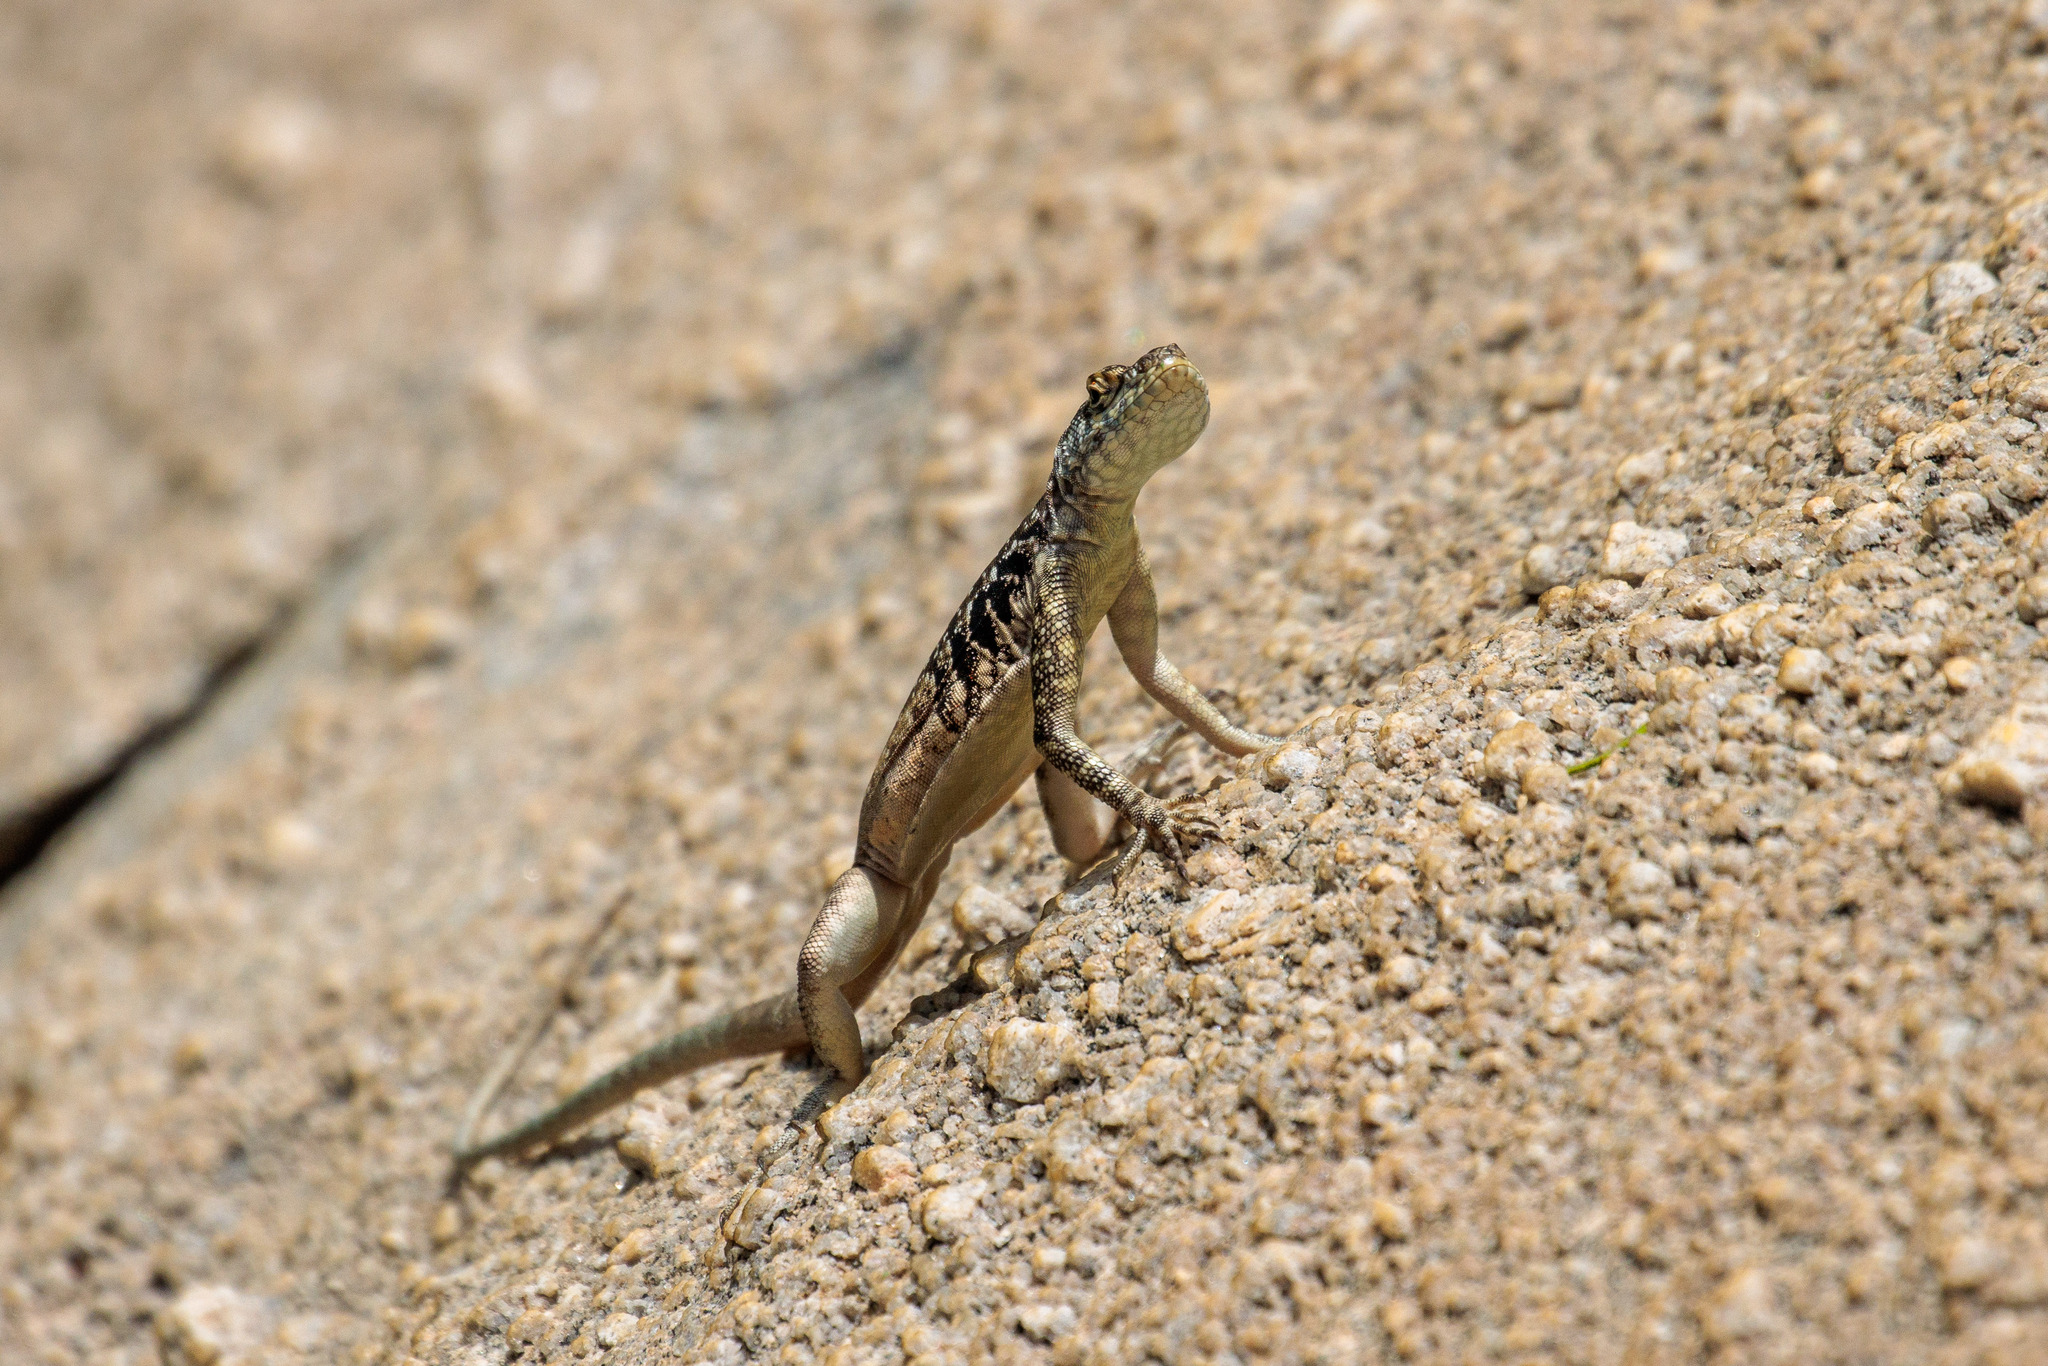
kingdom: Animalia
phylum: Chordata
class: Squamata
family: Tropiduridae
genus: Tropidurus
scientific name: Tropidurus semitaeniatus
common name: Striped lava lizard
